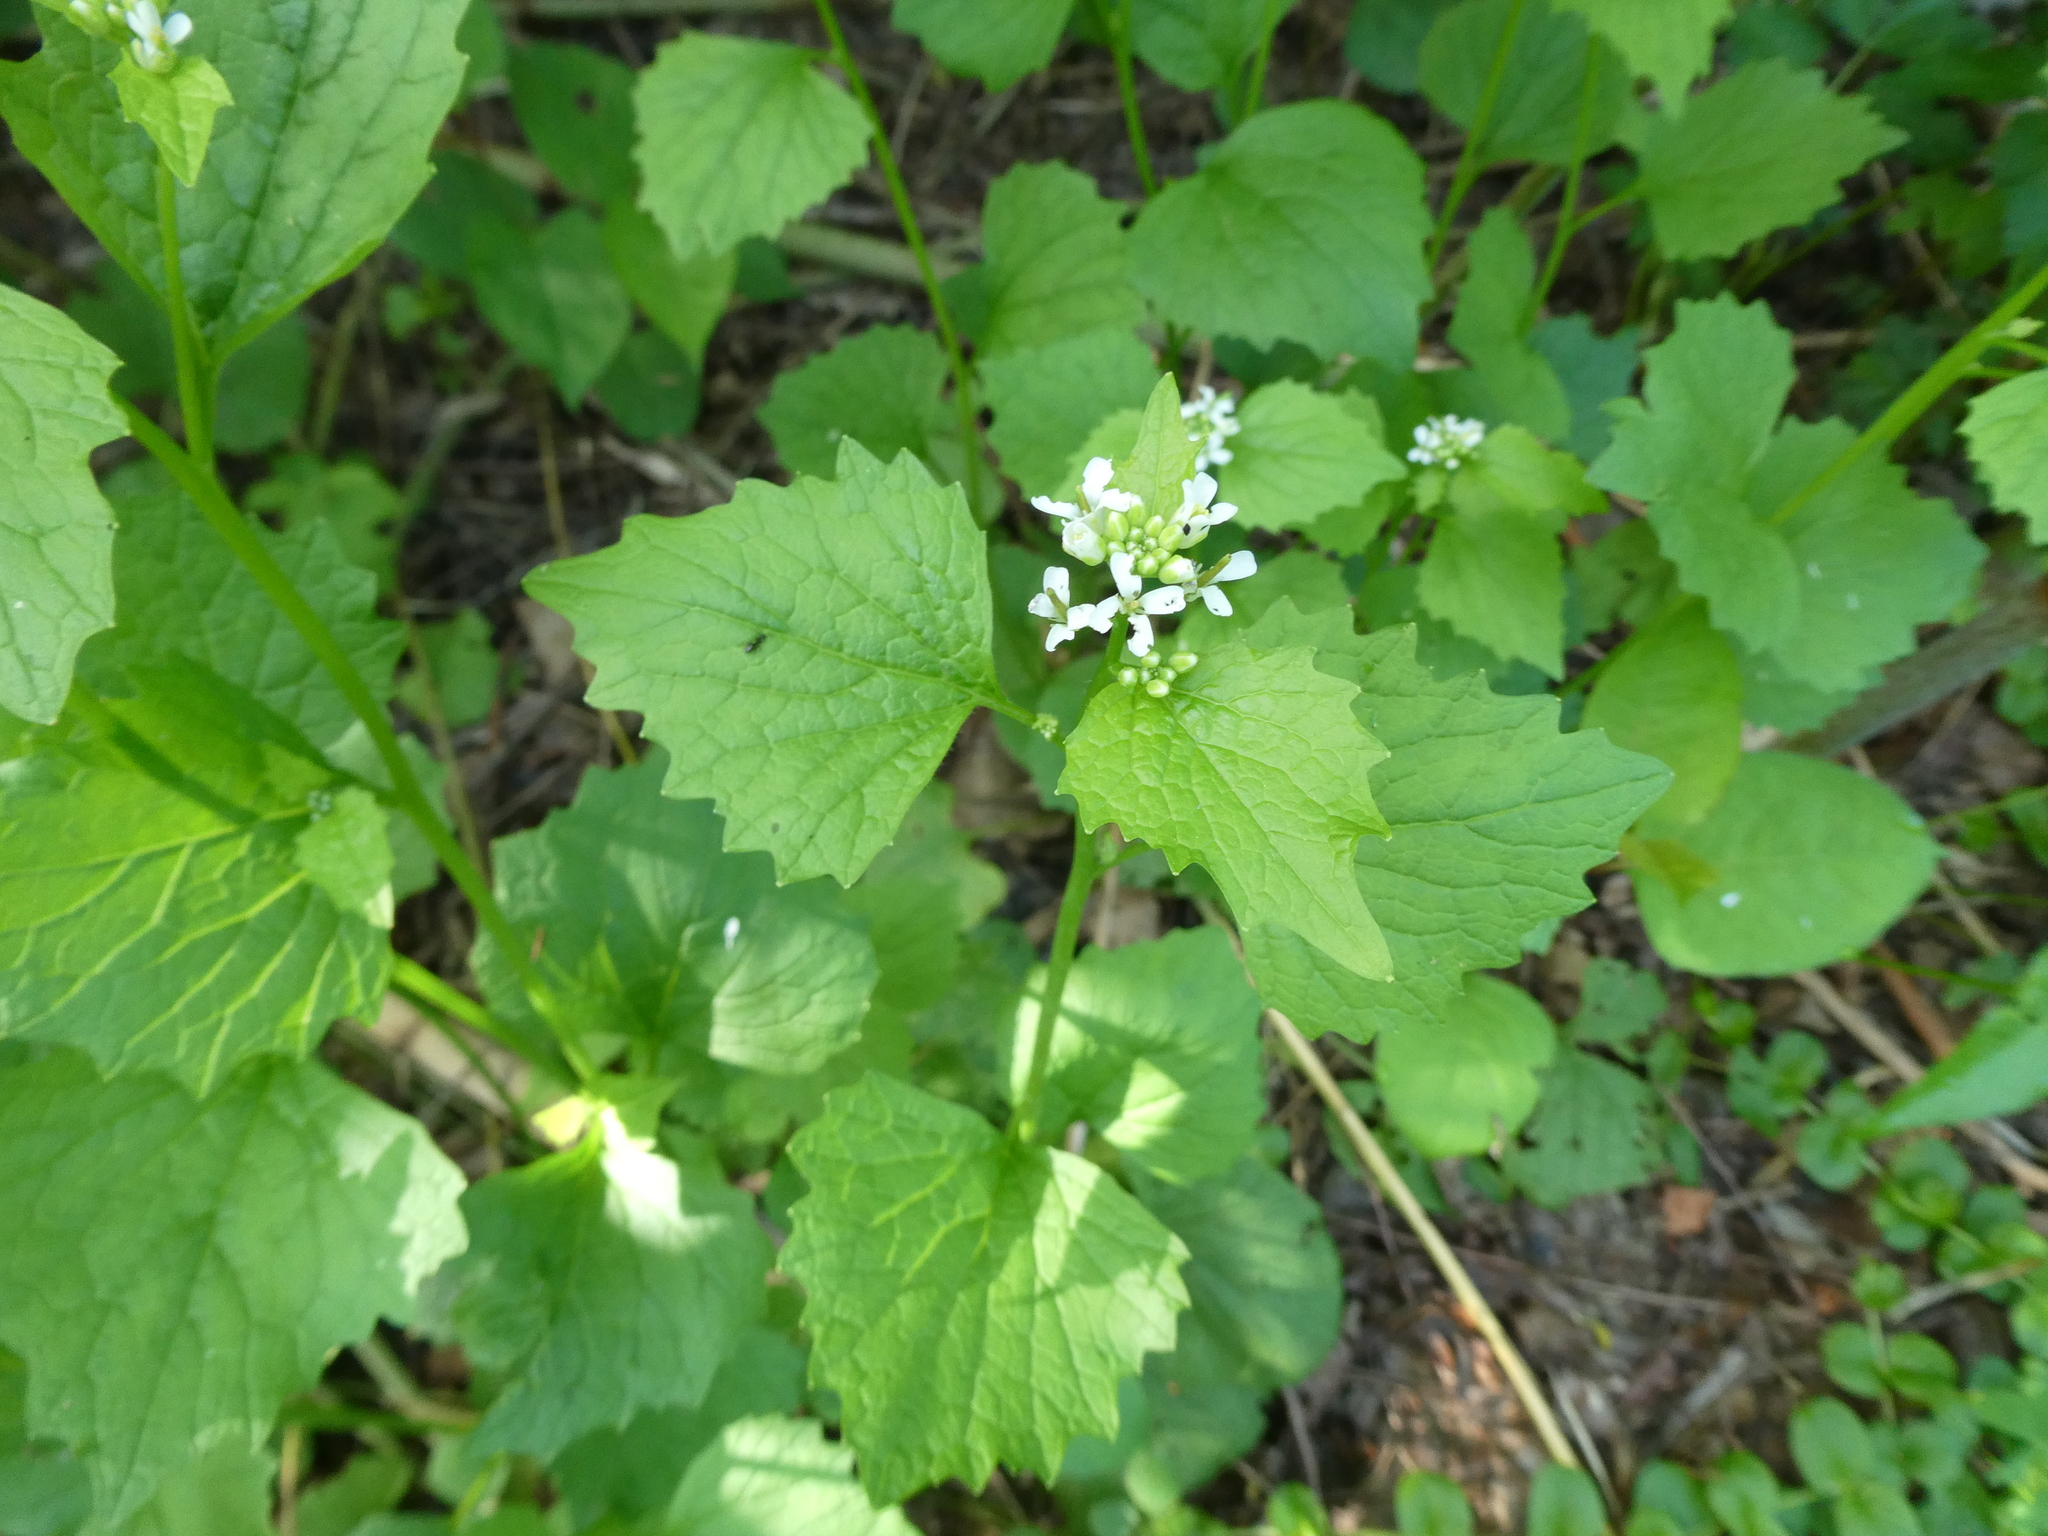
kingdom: Plantae
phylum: Tracheophyta
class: Magnoliopsida
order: Brassicales
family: Brassicaceae
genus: Alliaria
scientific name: Alliaria petiolata
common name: Garlic mustard
